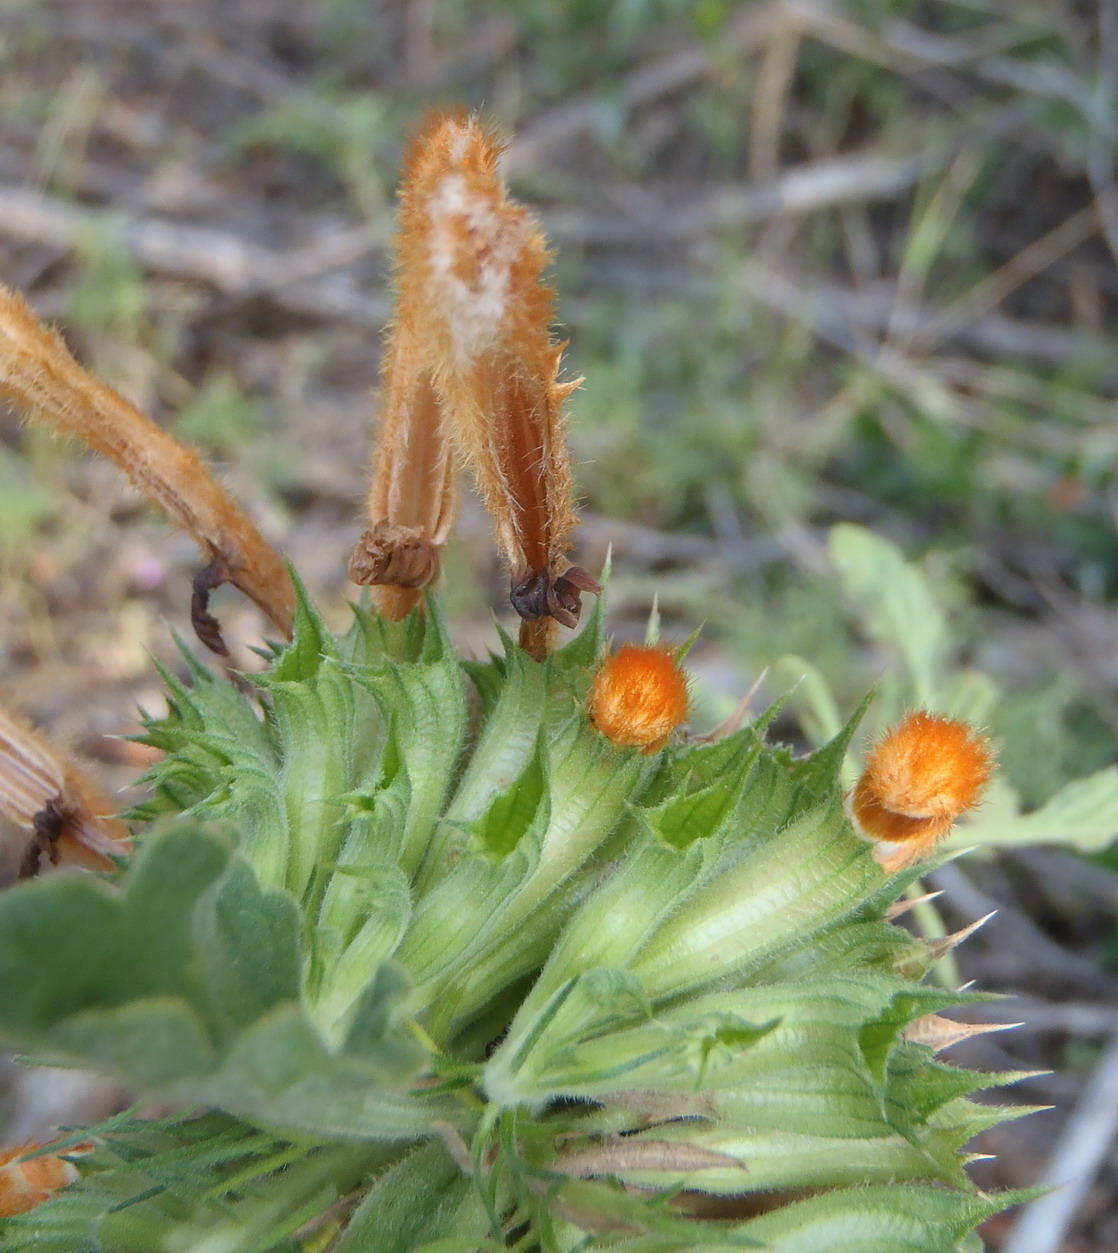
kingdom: Plantae
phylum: Tracheophyta
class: Magnoliopsida
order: Lamiales
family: Lamiaceae
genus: Leonotis
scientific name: Leonotis ocymifolia
